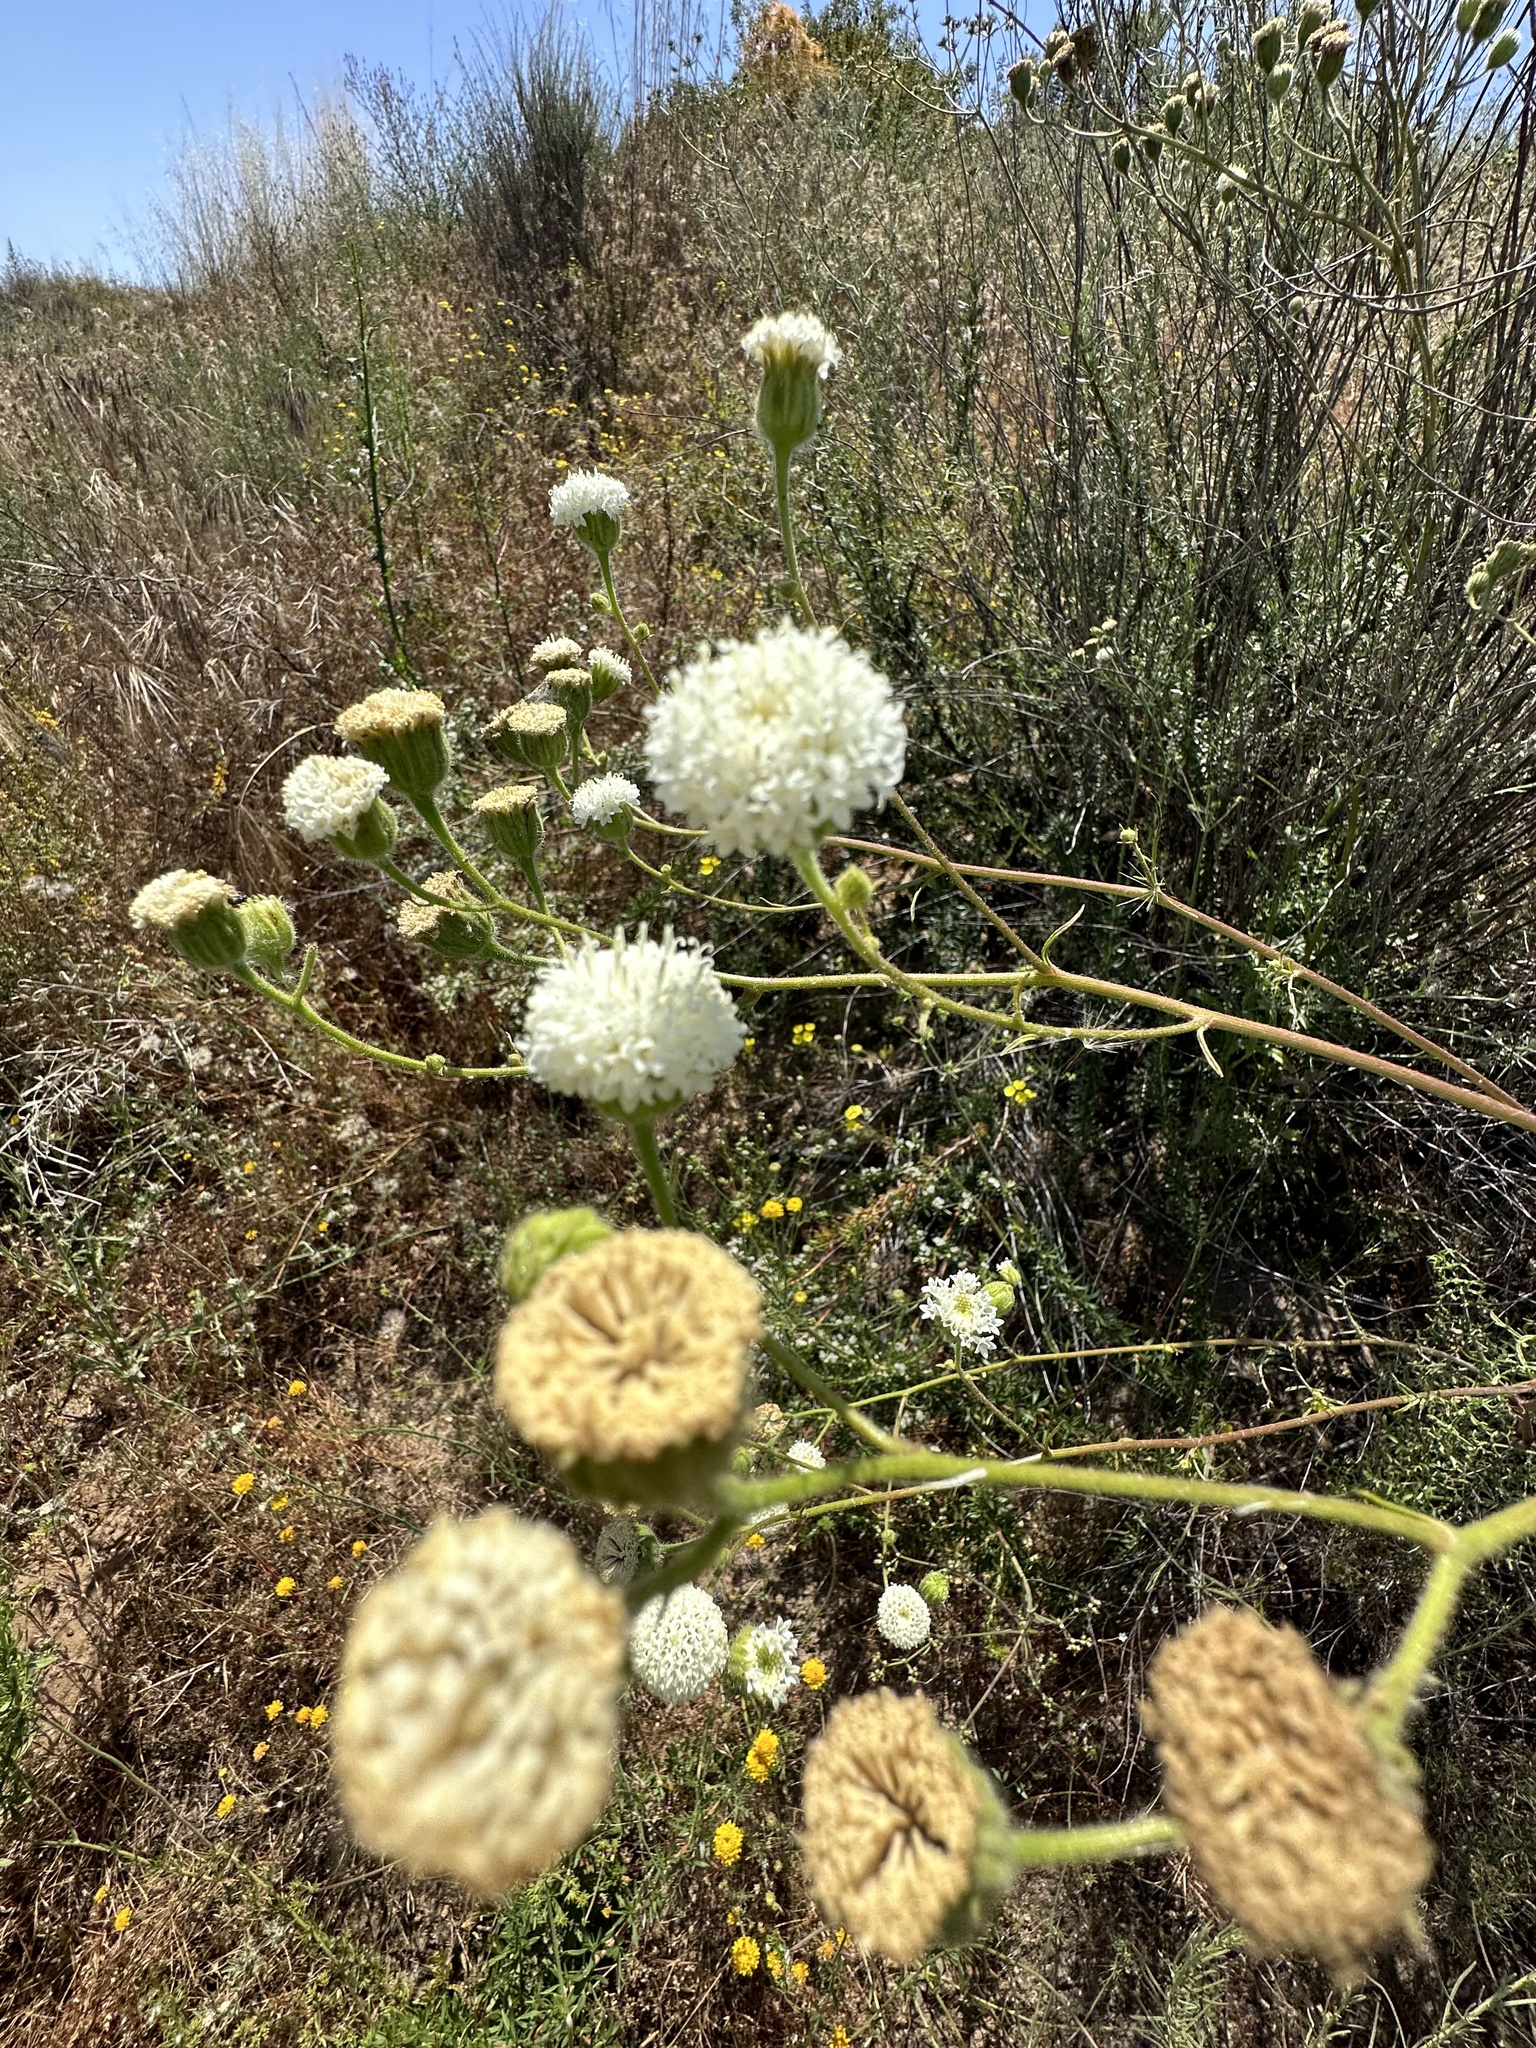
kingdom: Plantae
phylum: Tracheophyta
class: Magnoliopsida
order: Asterales
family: Asteraceae
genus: Chaenactis
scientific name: Chaenactis artemisiifolia
